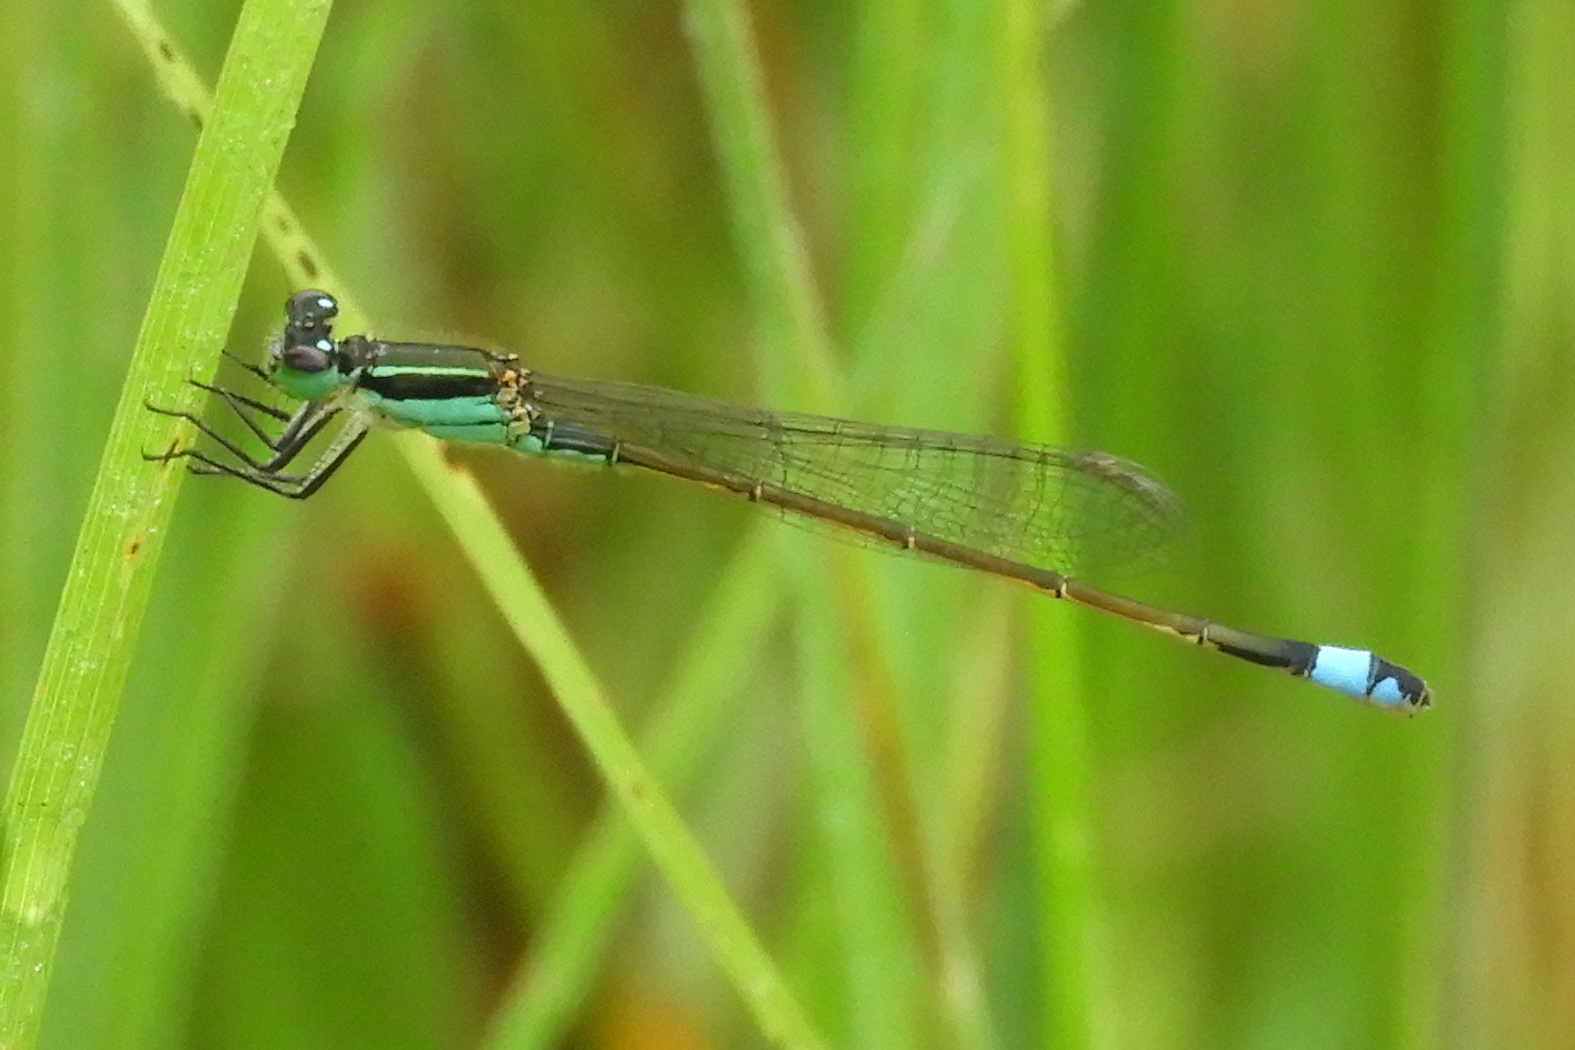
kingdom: Animalia
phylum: Arthropoda
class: Insecta
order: Odonata
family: Coenagrionidae
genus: Ischnura
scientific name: Ischnura ramburii
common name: Rambur's forktail
